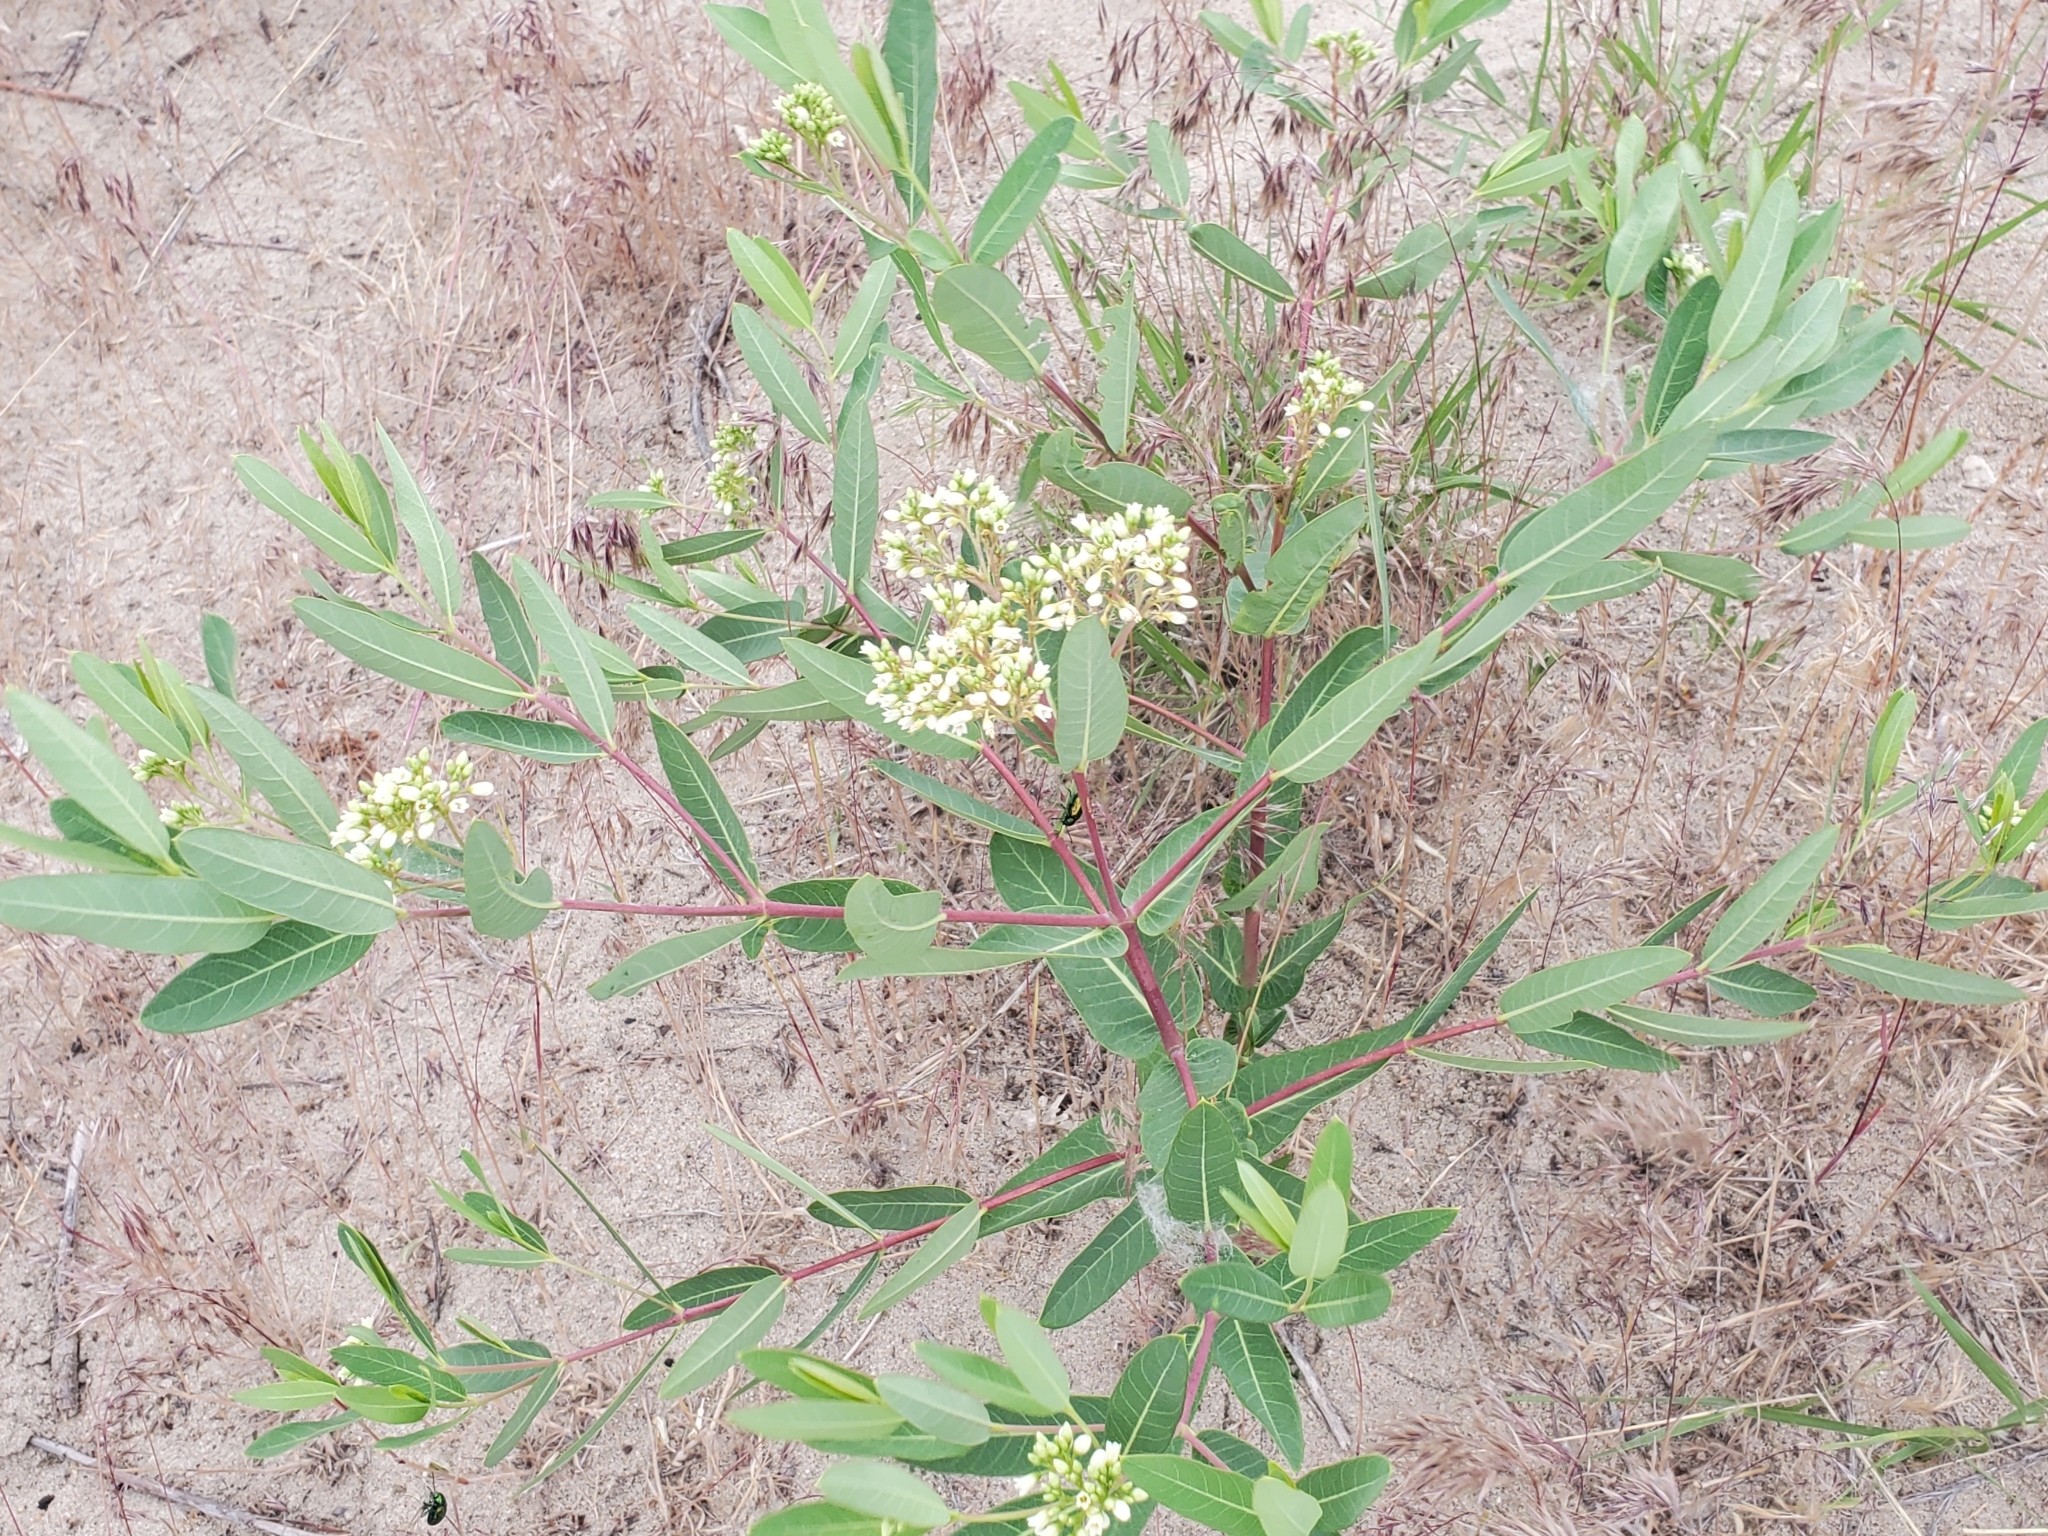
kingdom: Plantae
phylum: Tracheophyta
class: Magnoliopsida
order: Gentianales
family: Apocynaceae
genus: Apocynum
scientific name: Apocynum cannabinum
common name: Hemp dogbane
